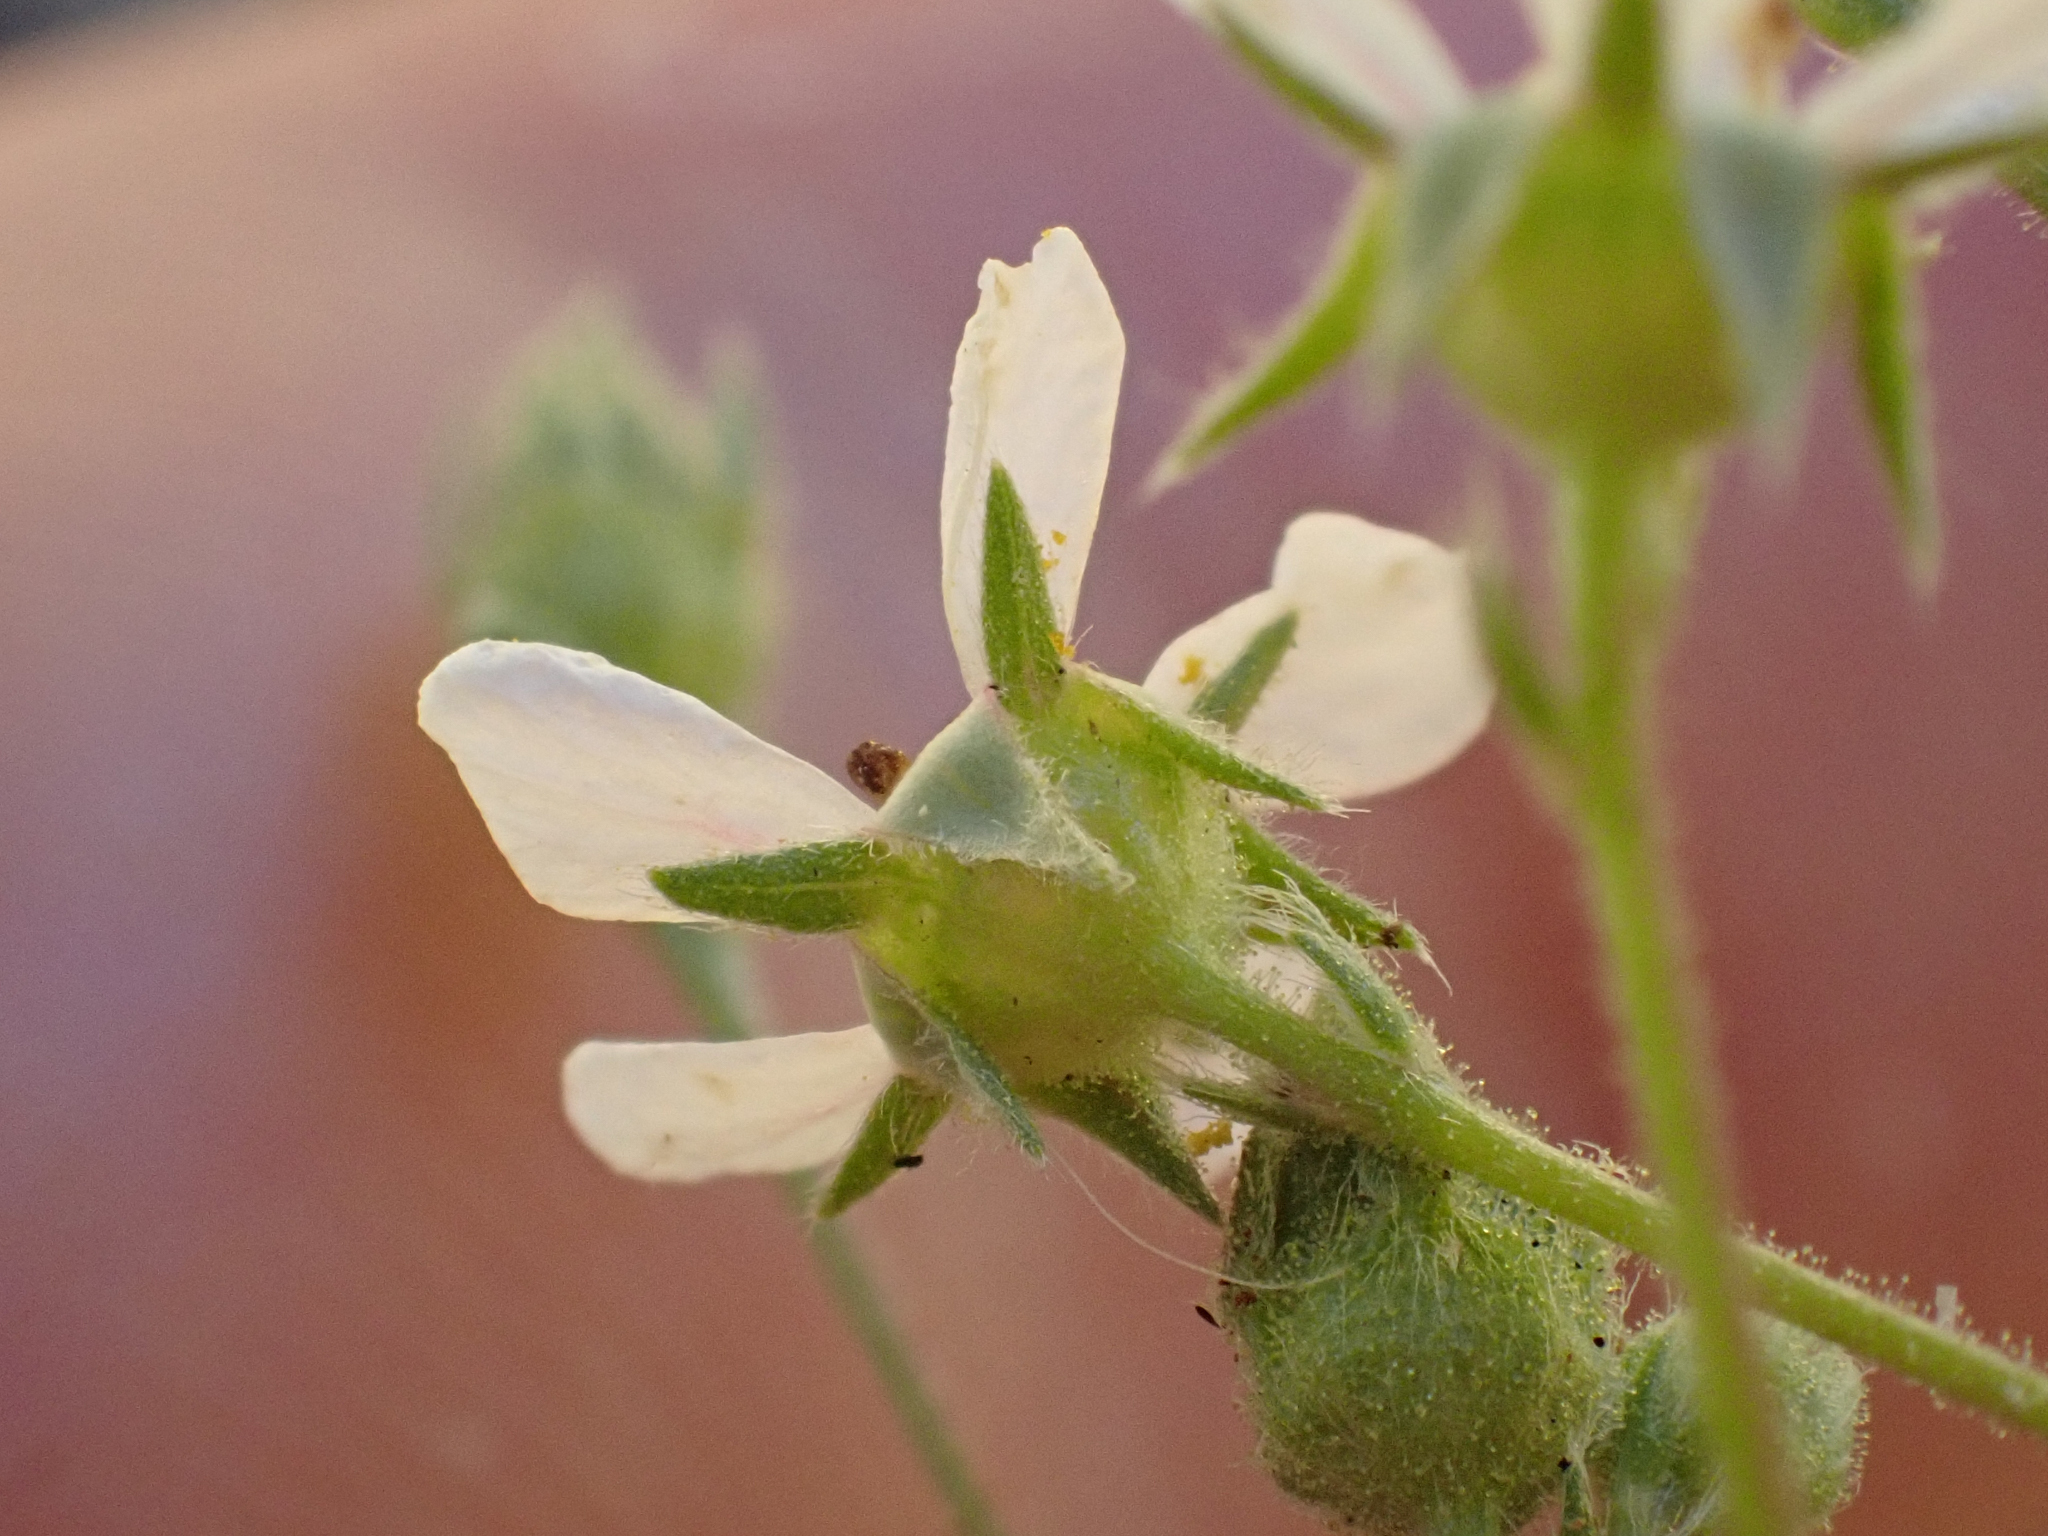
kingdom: Plantae
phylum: Tracheophyta
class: Magnoliopsida
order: Rosales
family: Rosaceae
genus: Potentilla
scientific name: Potentilla howellii
